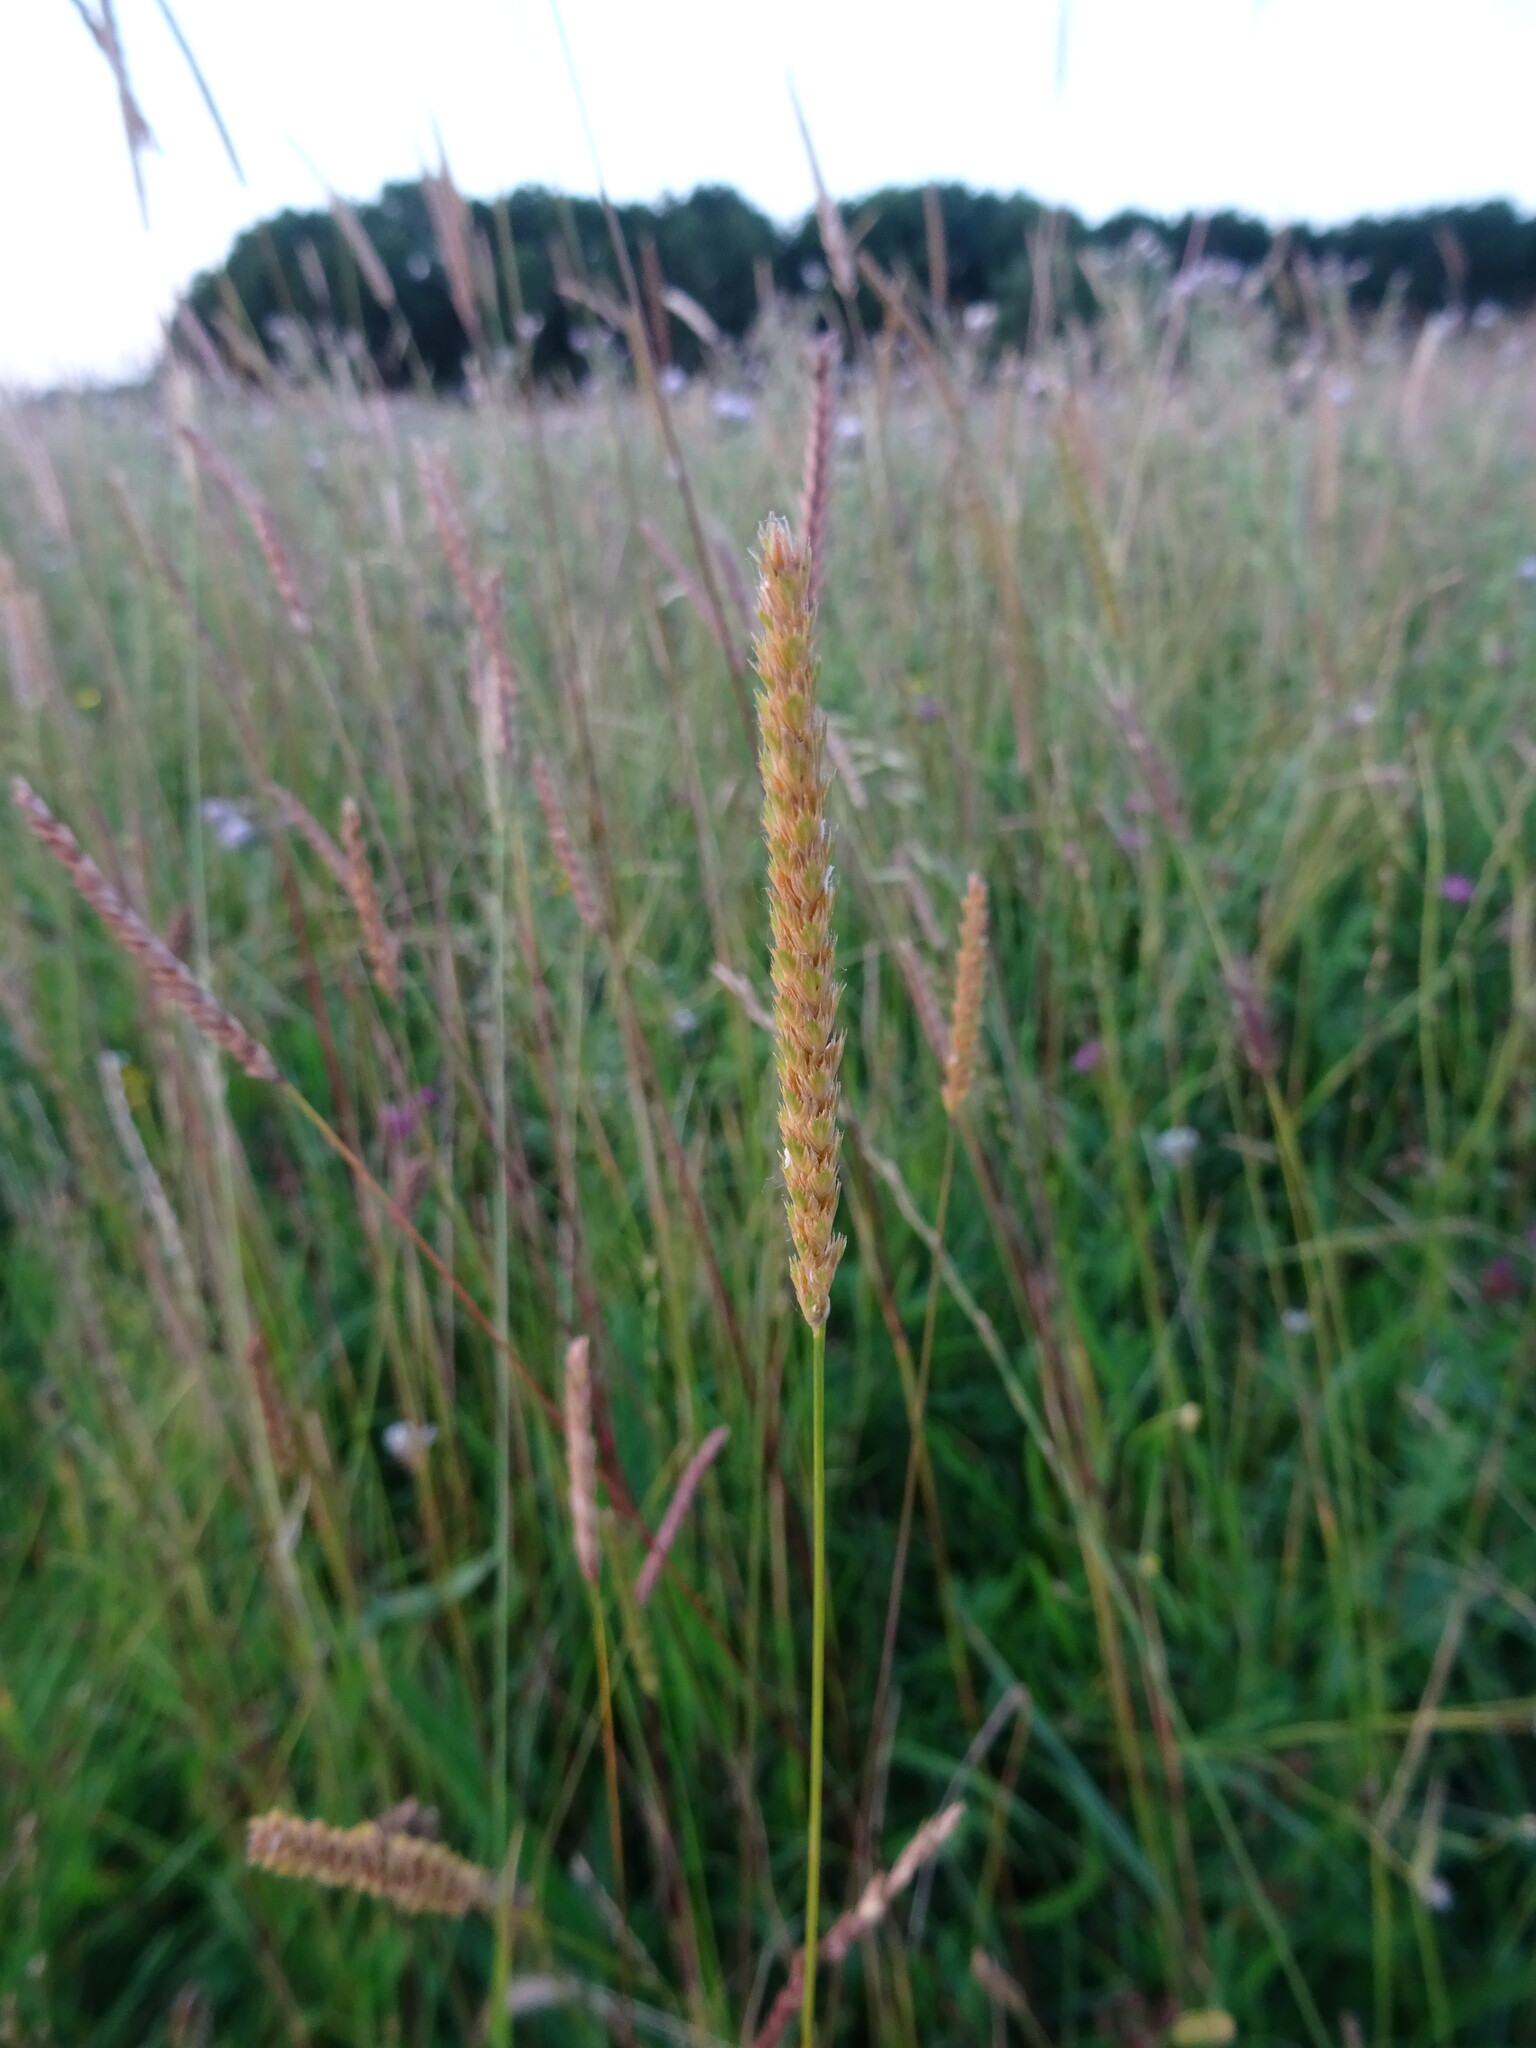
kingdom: Plantae
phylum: Tracheophyta
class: Liliopsida
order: Poales
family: Poaceae
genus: Cynosurus
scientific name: Cynosurus cristatus
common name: Crested dog's-tail
